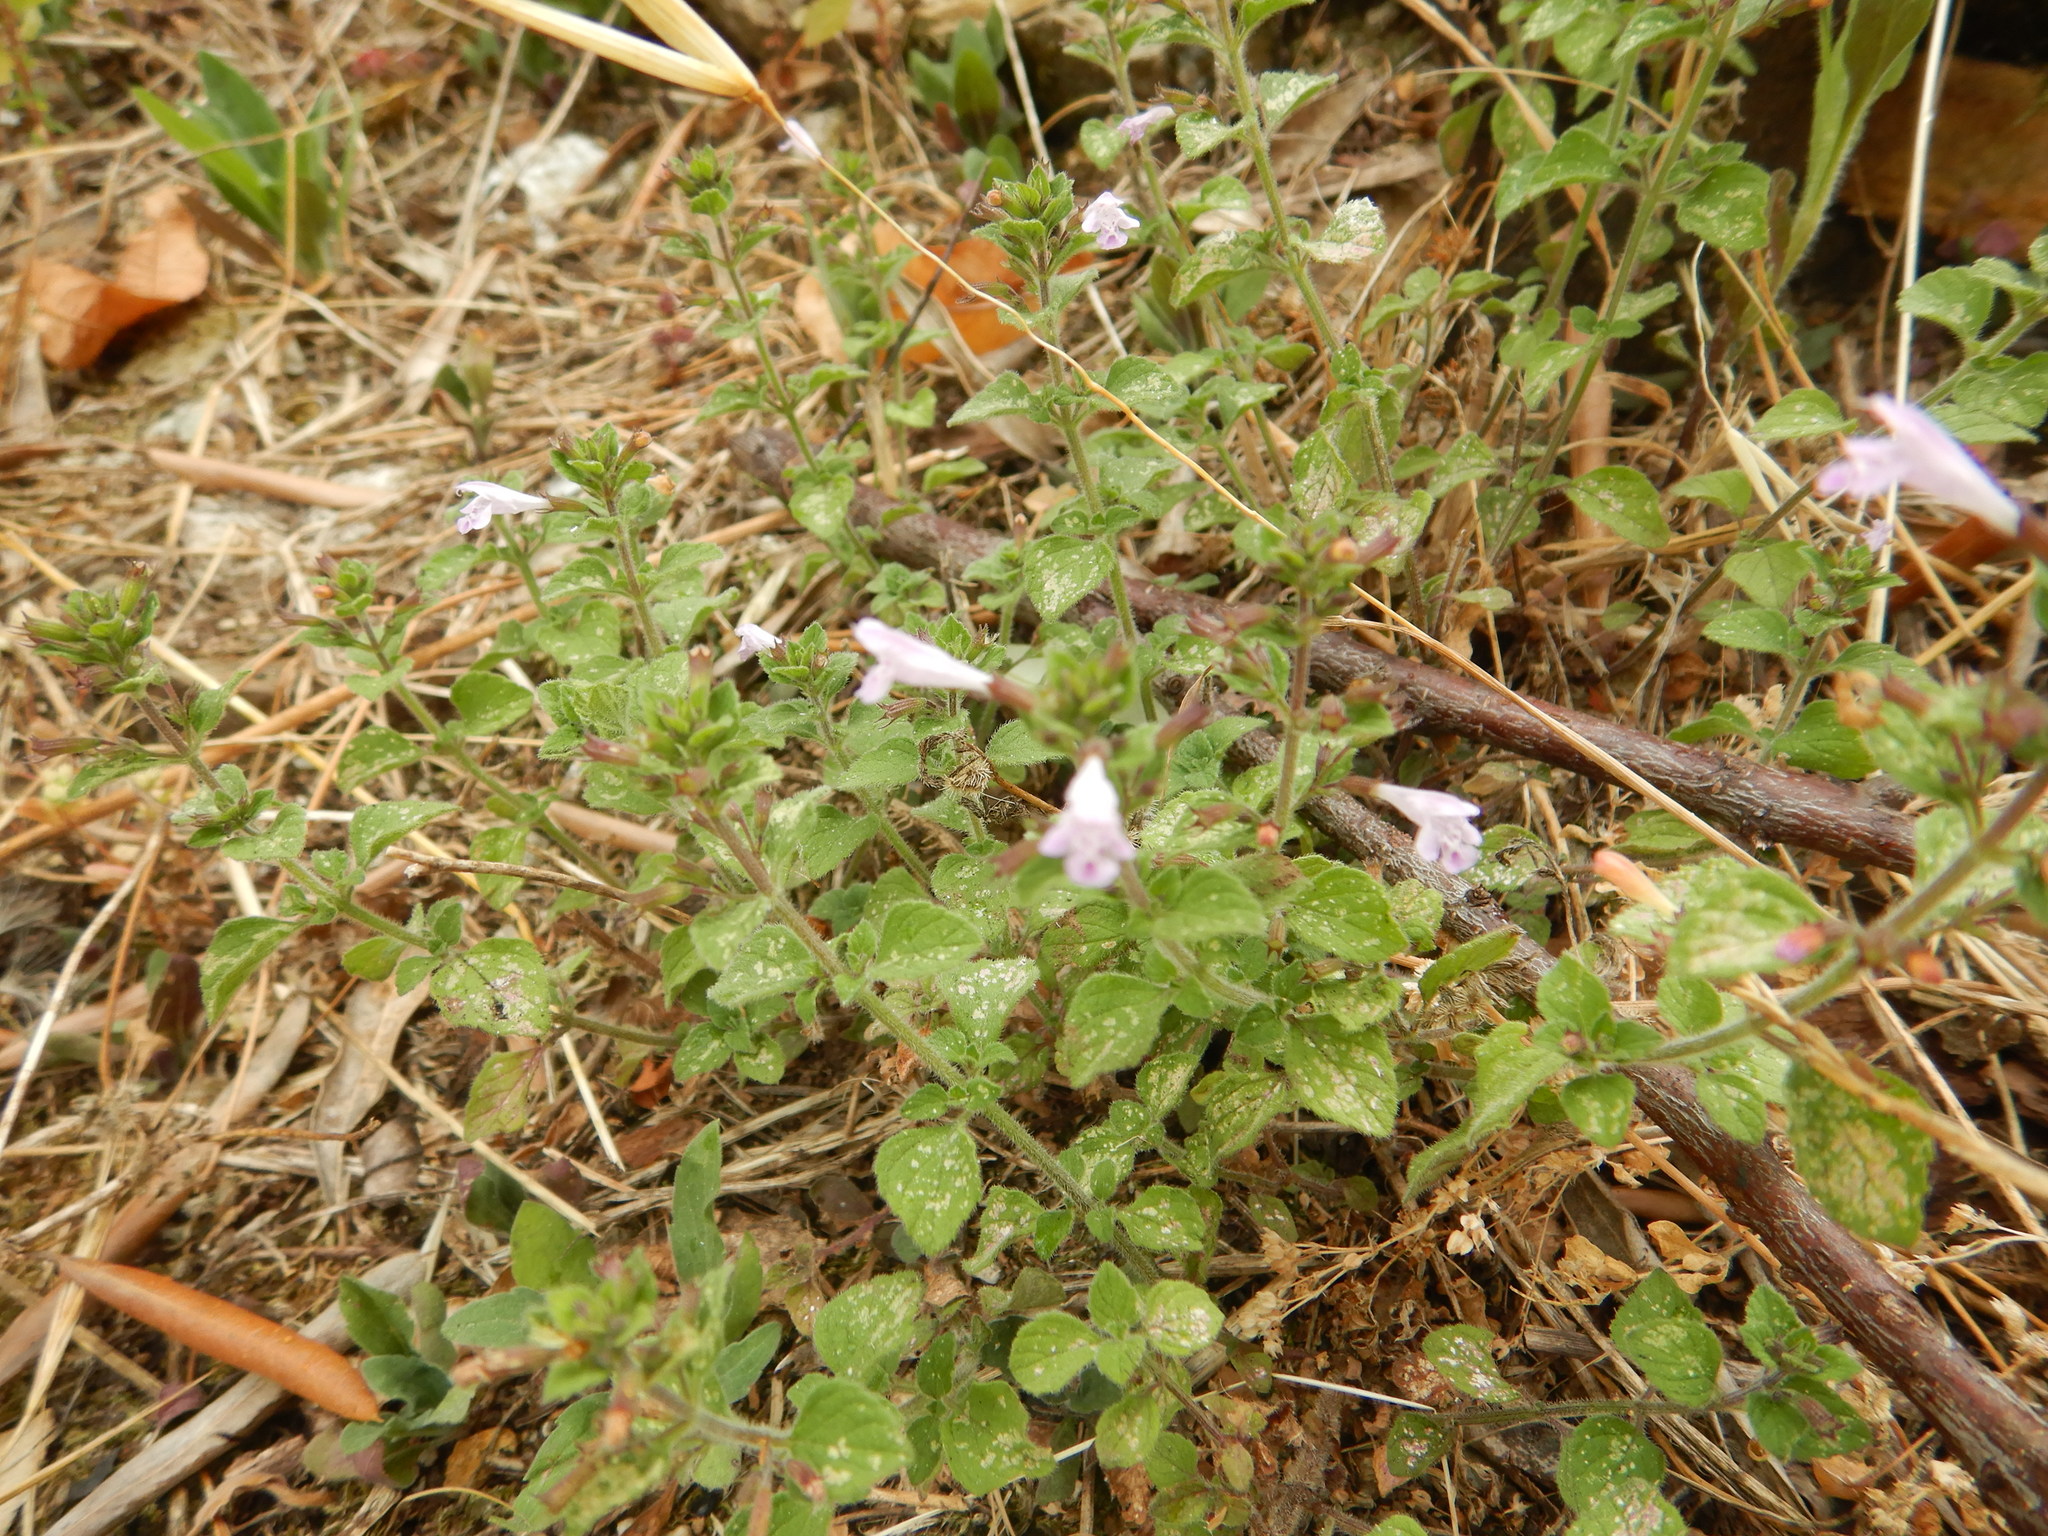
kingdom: Plantae
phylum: Tracheophyta
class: Magnoliopsida
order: Lamiales
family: Lamiaceae
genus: Clinopodium
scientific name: Clinopodium nepeta
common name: Lesser calamint
